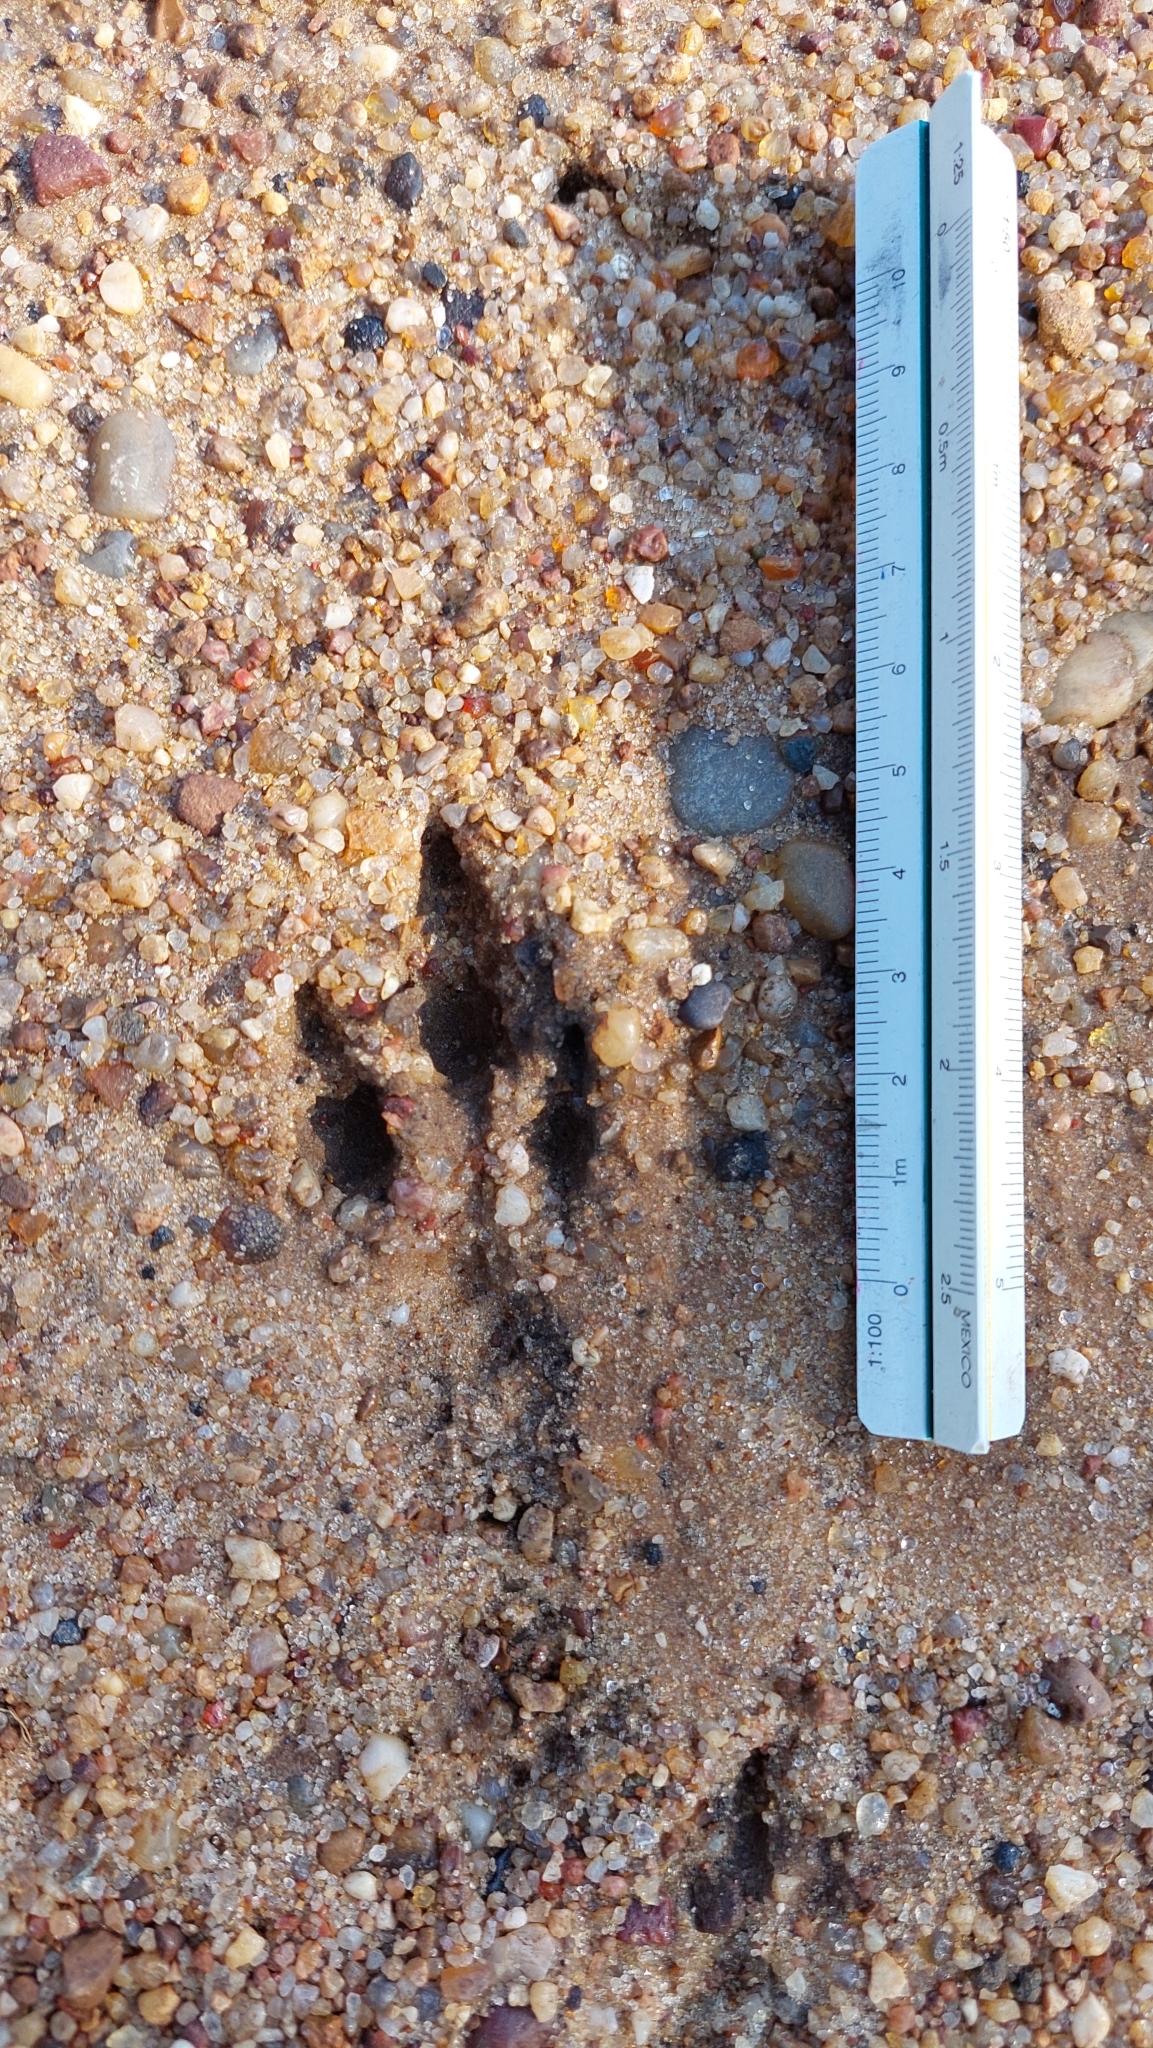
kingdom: Animalia
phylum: Chordata
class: Mammalia
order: Rodentia
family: Chinchillidae
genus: Lagostomus
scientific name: Lagostomus maximus
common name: Plains viscacha
